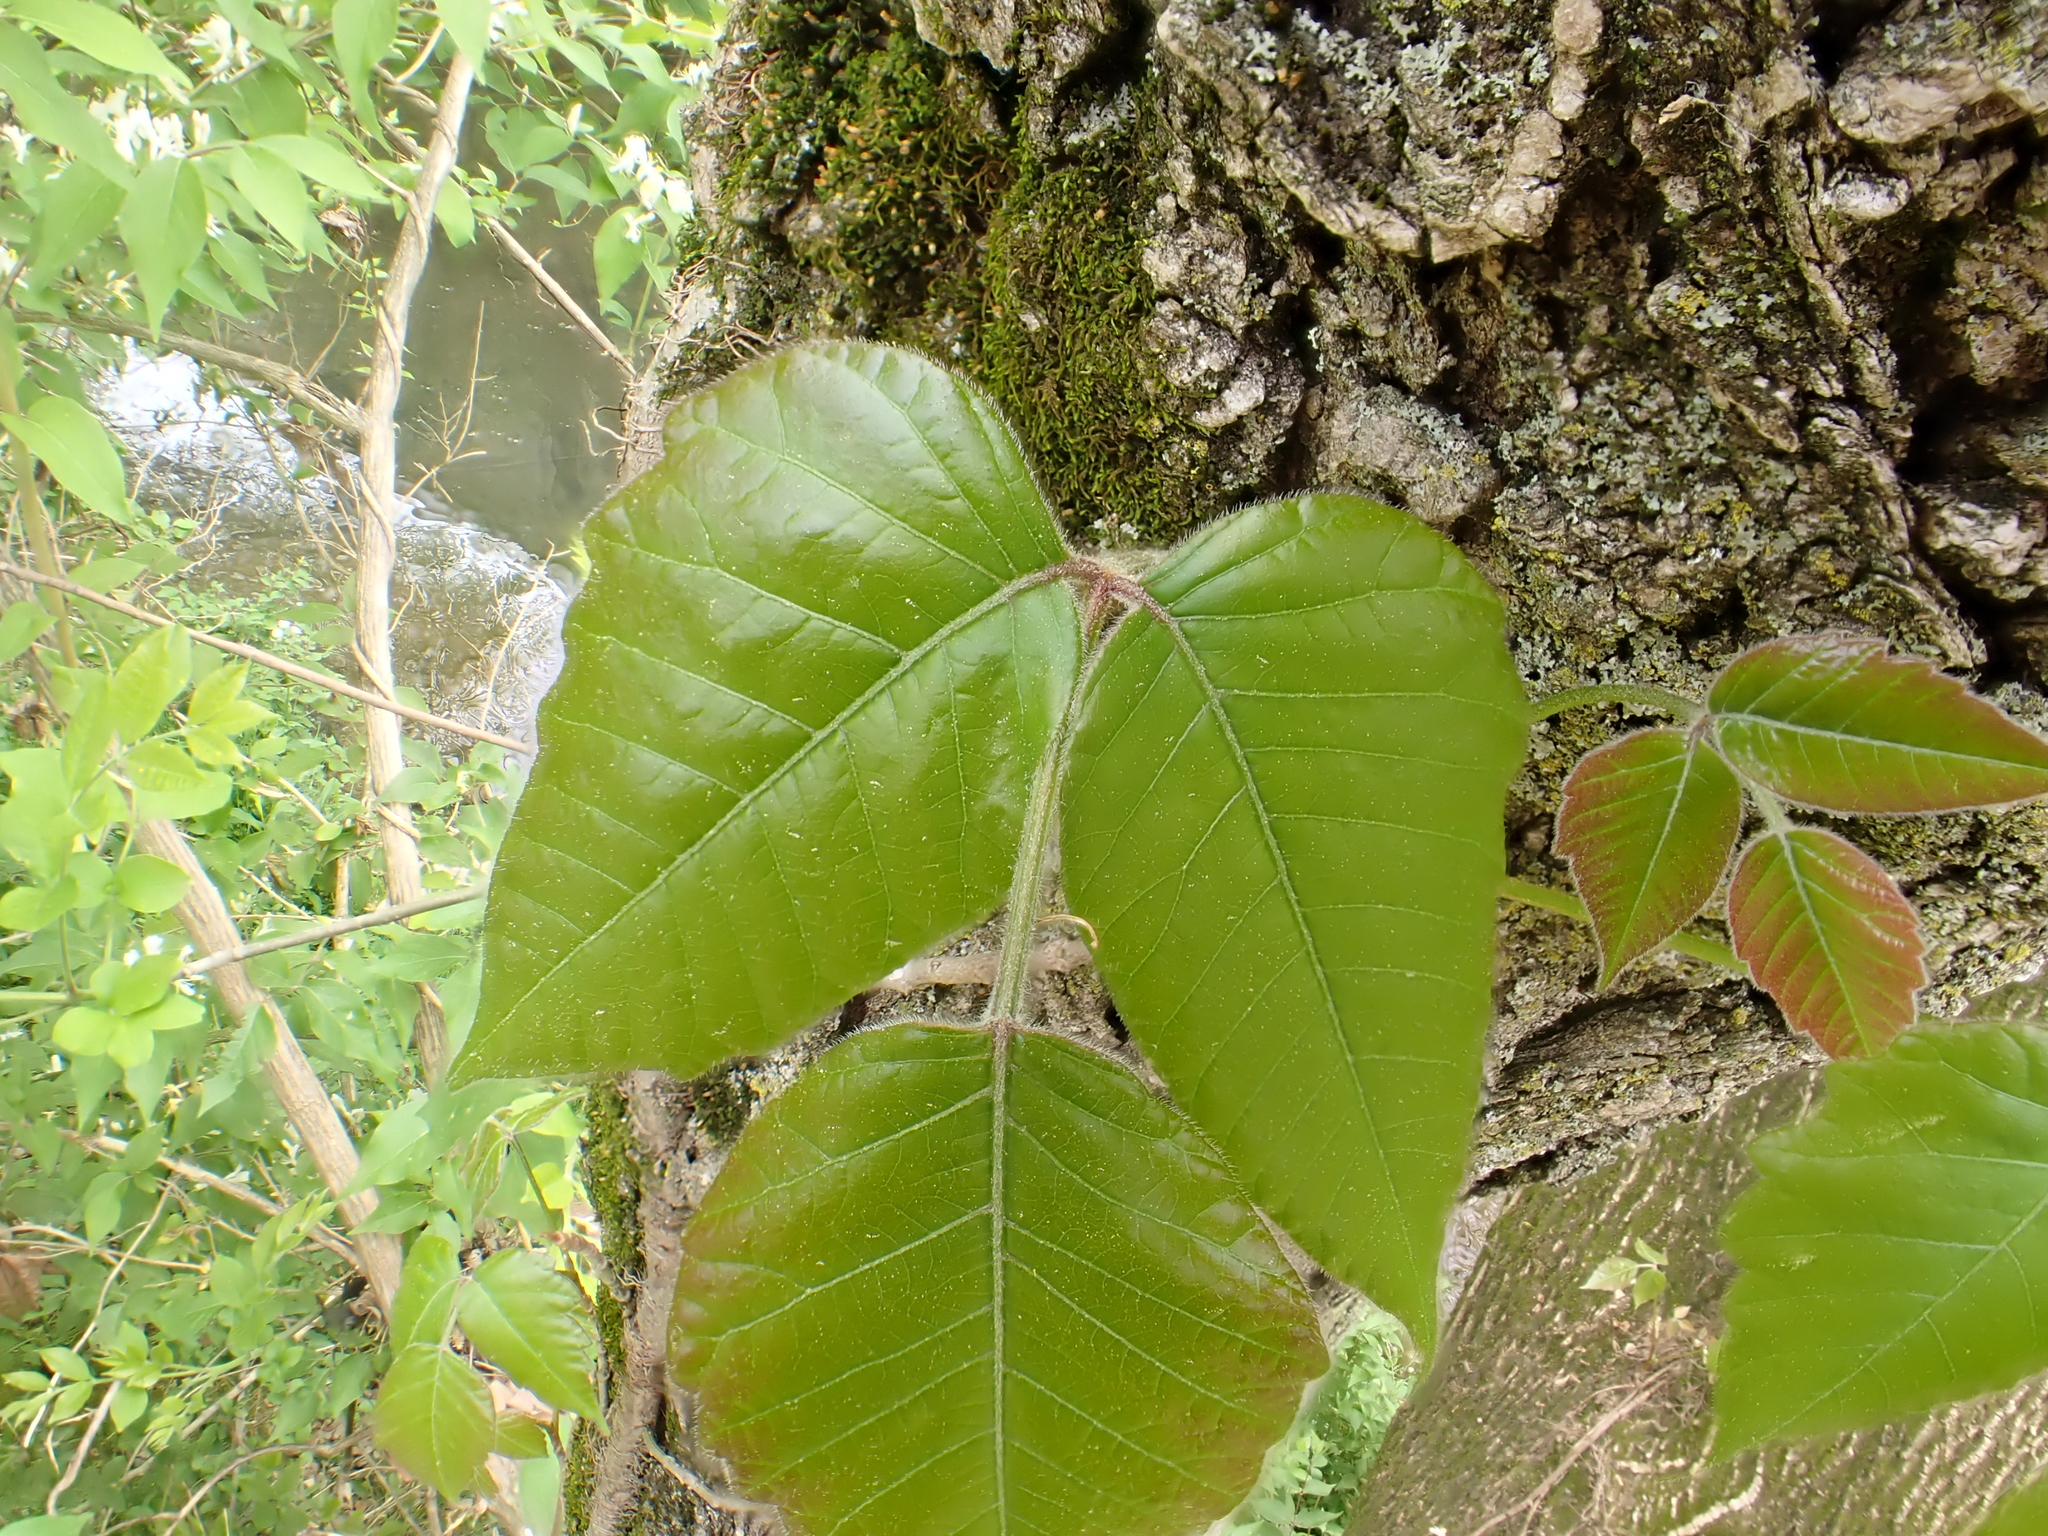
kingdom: Plantae
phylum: Tracheophyta
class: Magnoliopsida
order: Sapindales
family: Anacardiaceae
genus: Toxicodendron
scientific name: Toxicodendron radicans
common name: Poison ivy
